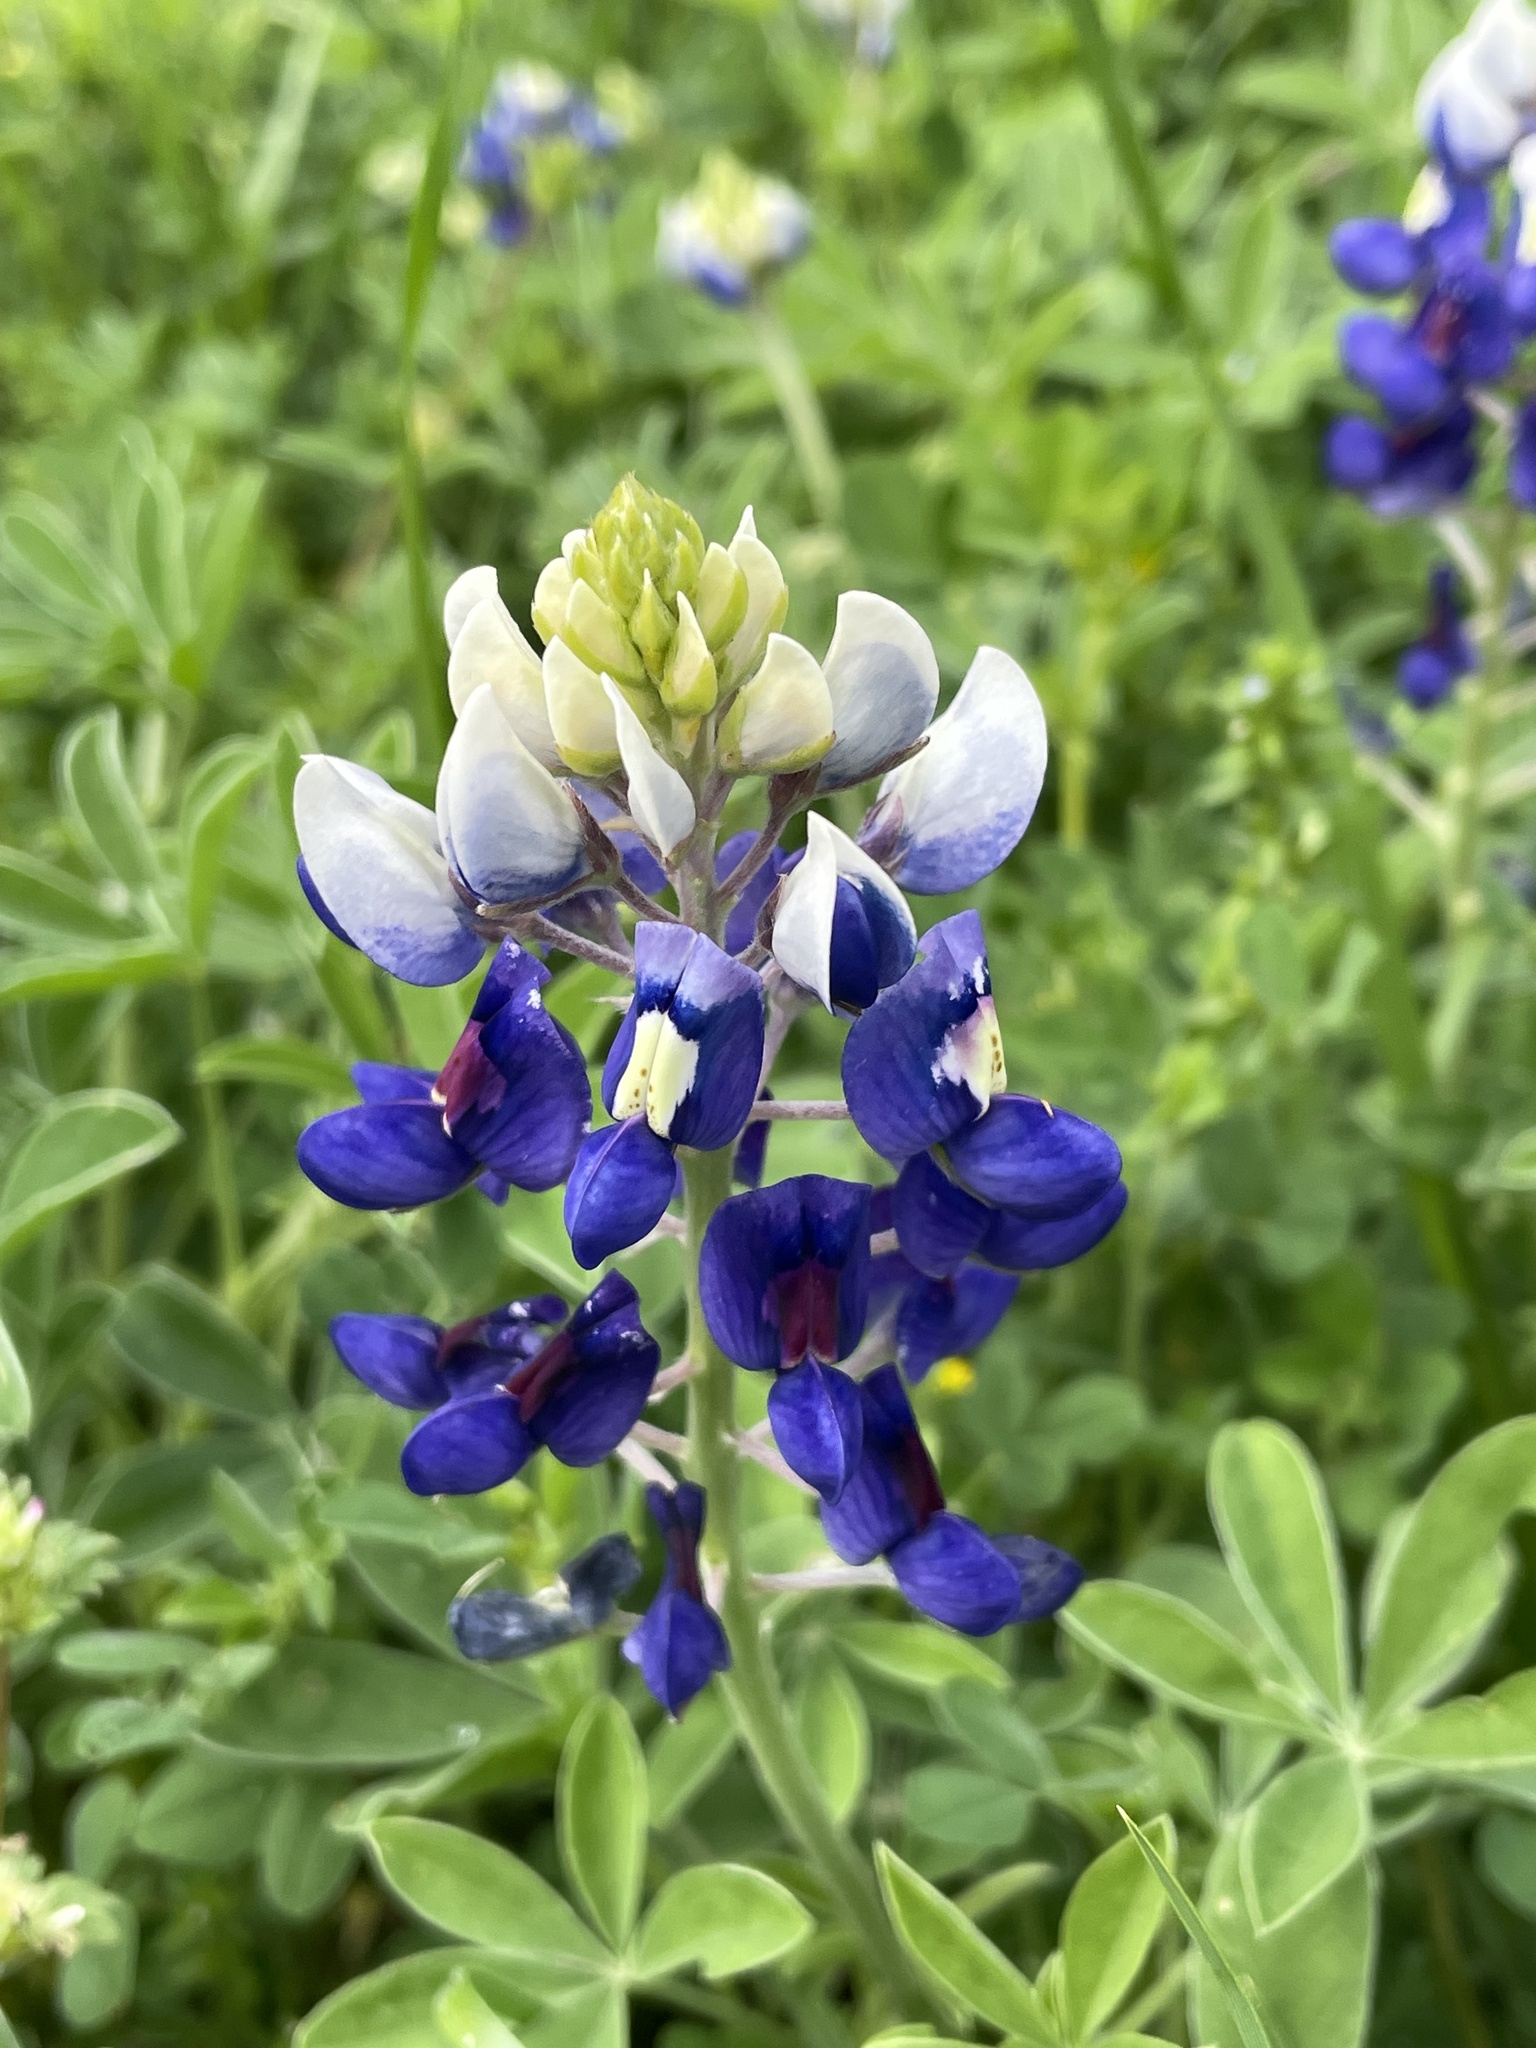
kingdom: Plantae
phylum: Tracheophyta
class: Magnoliopsida
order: Fabales
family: Fabaceae
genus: Lupinus
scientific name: Lupinus texensis
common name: Texas bluebonnet
